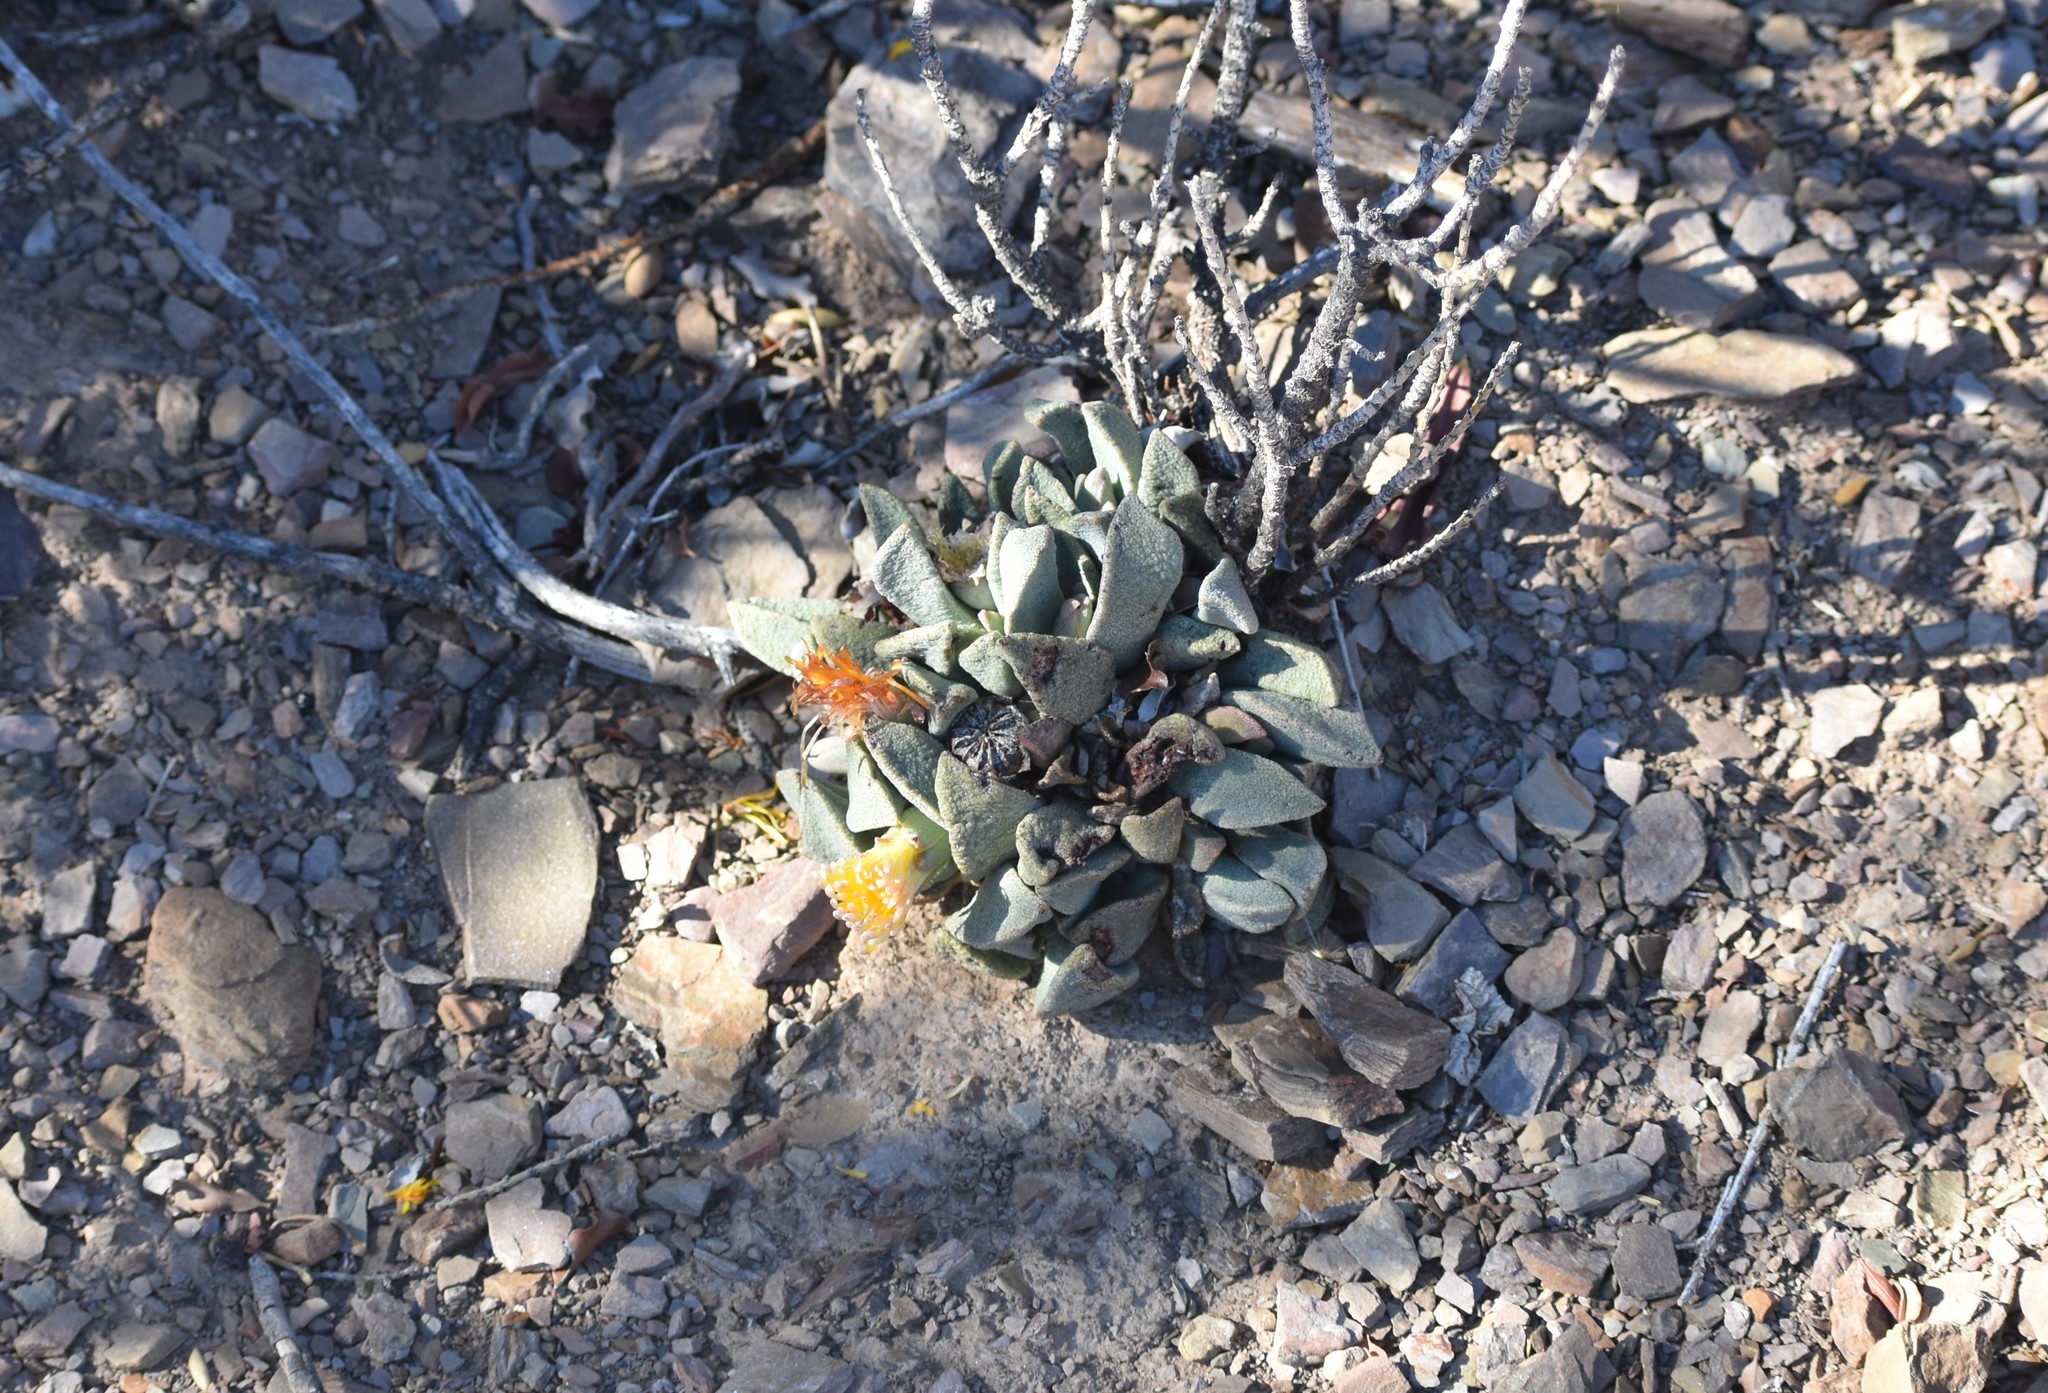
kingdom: Plantae
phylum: Tracheophyta
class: Magnoliopsida
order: Caryophyllales
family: Aizoaceae
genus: Pleiospilos
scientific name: Pleiospilos compactus
